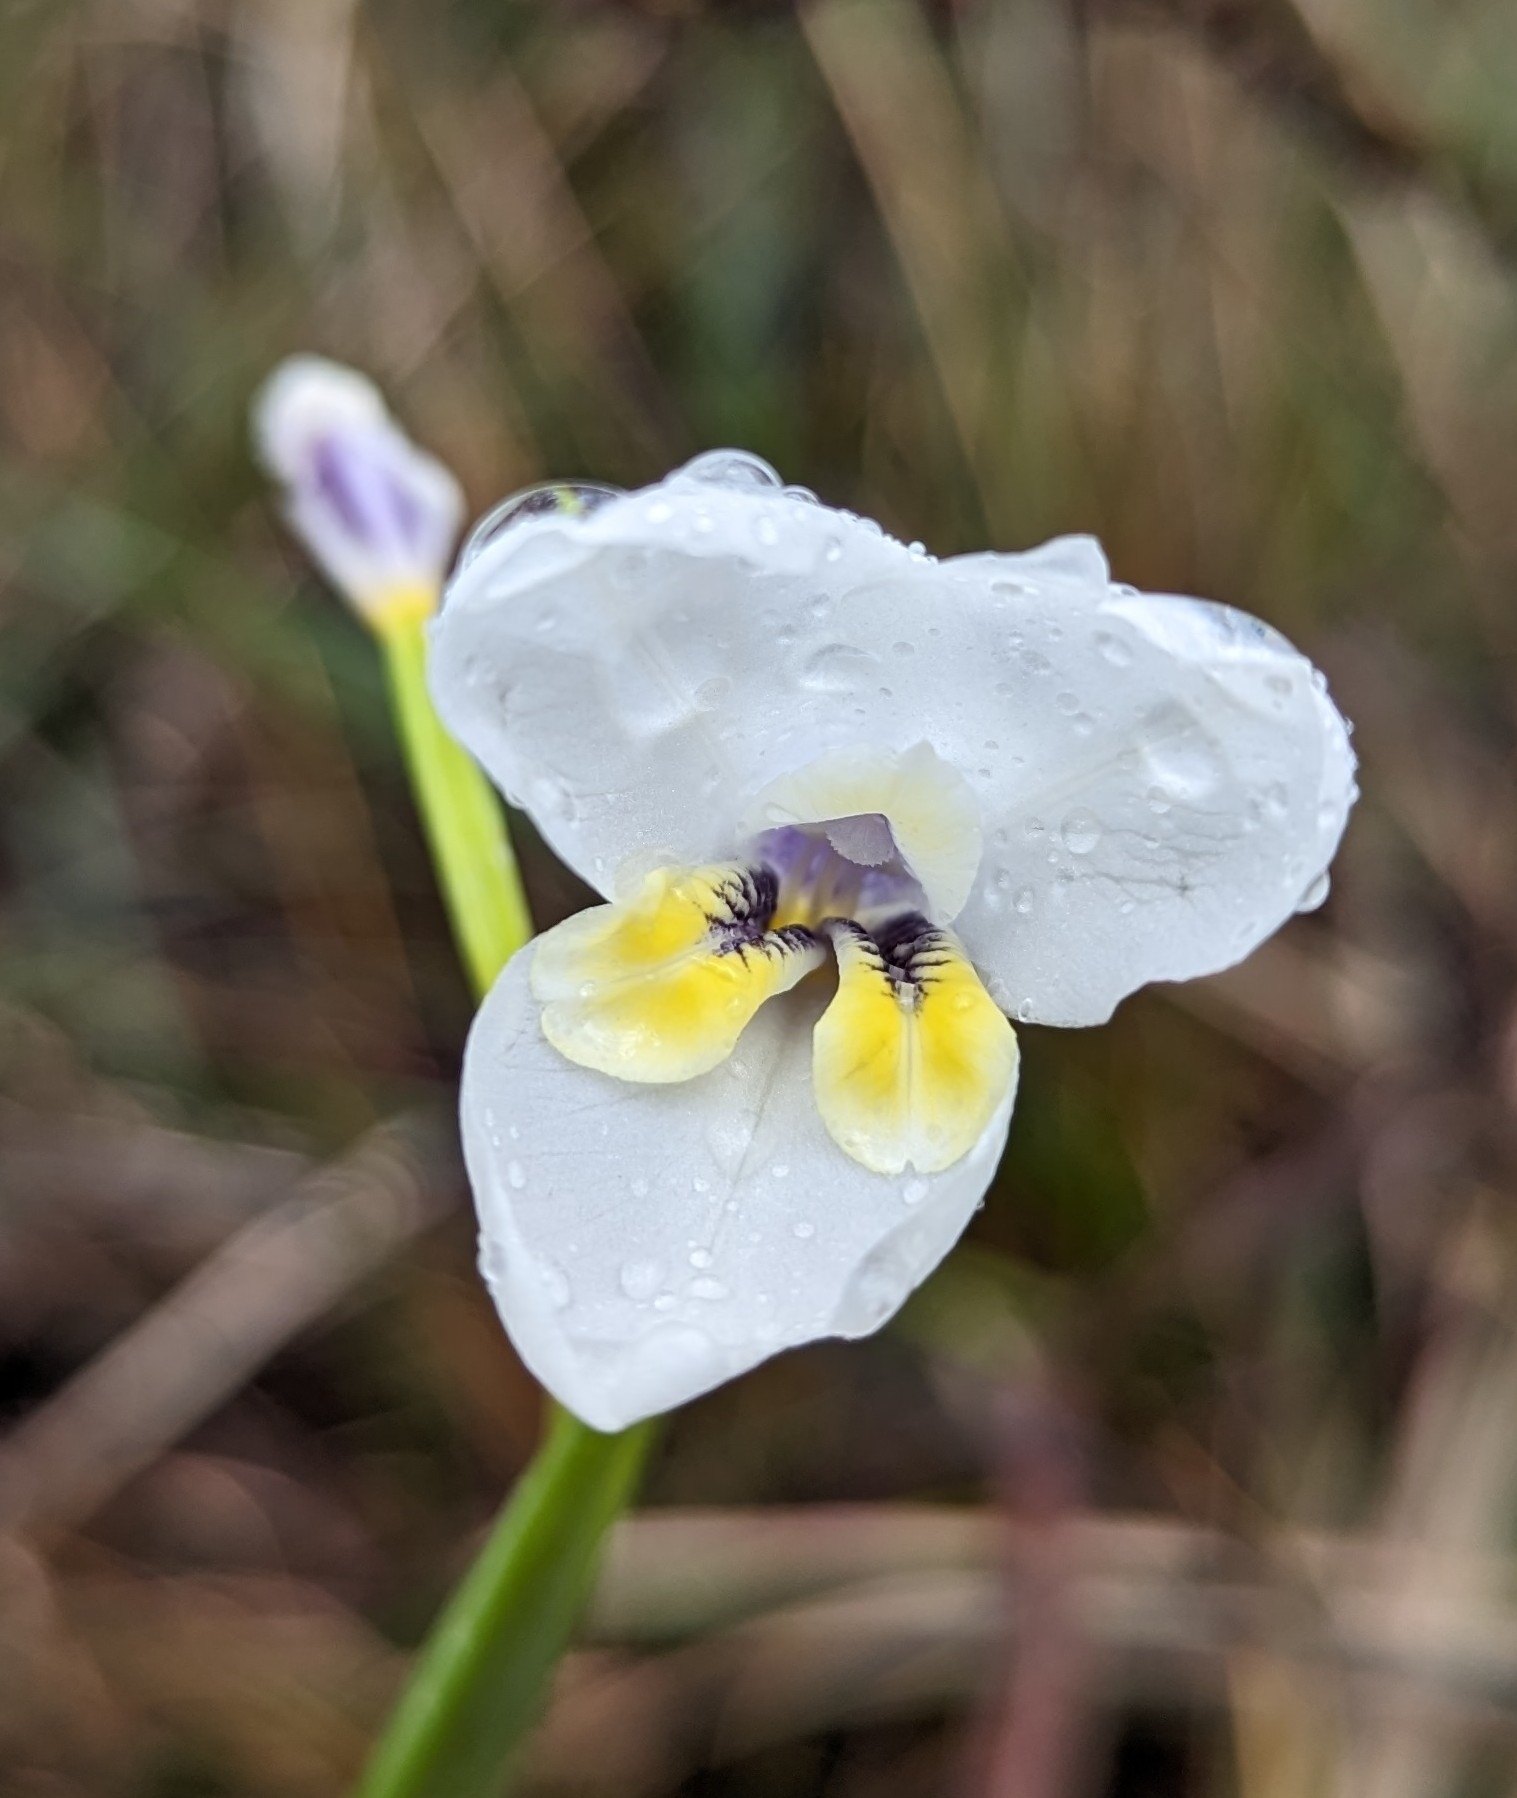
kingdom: Plantae
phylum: Tracheophyta
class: Liliopsida
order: Asparagales
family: Iridaceae
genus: Diplarrena
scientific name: Diplarrena moraea
